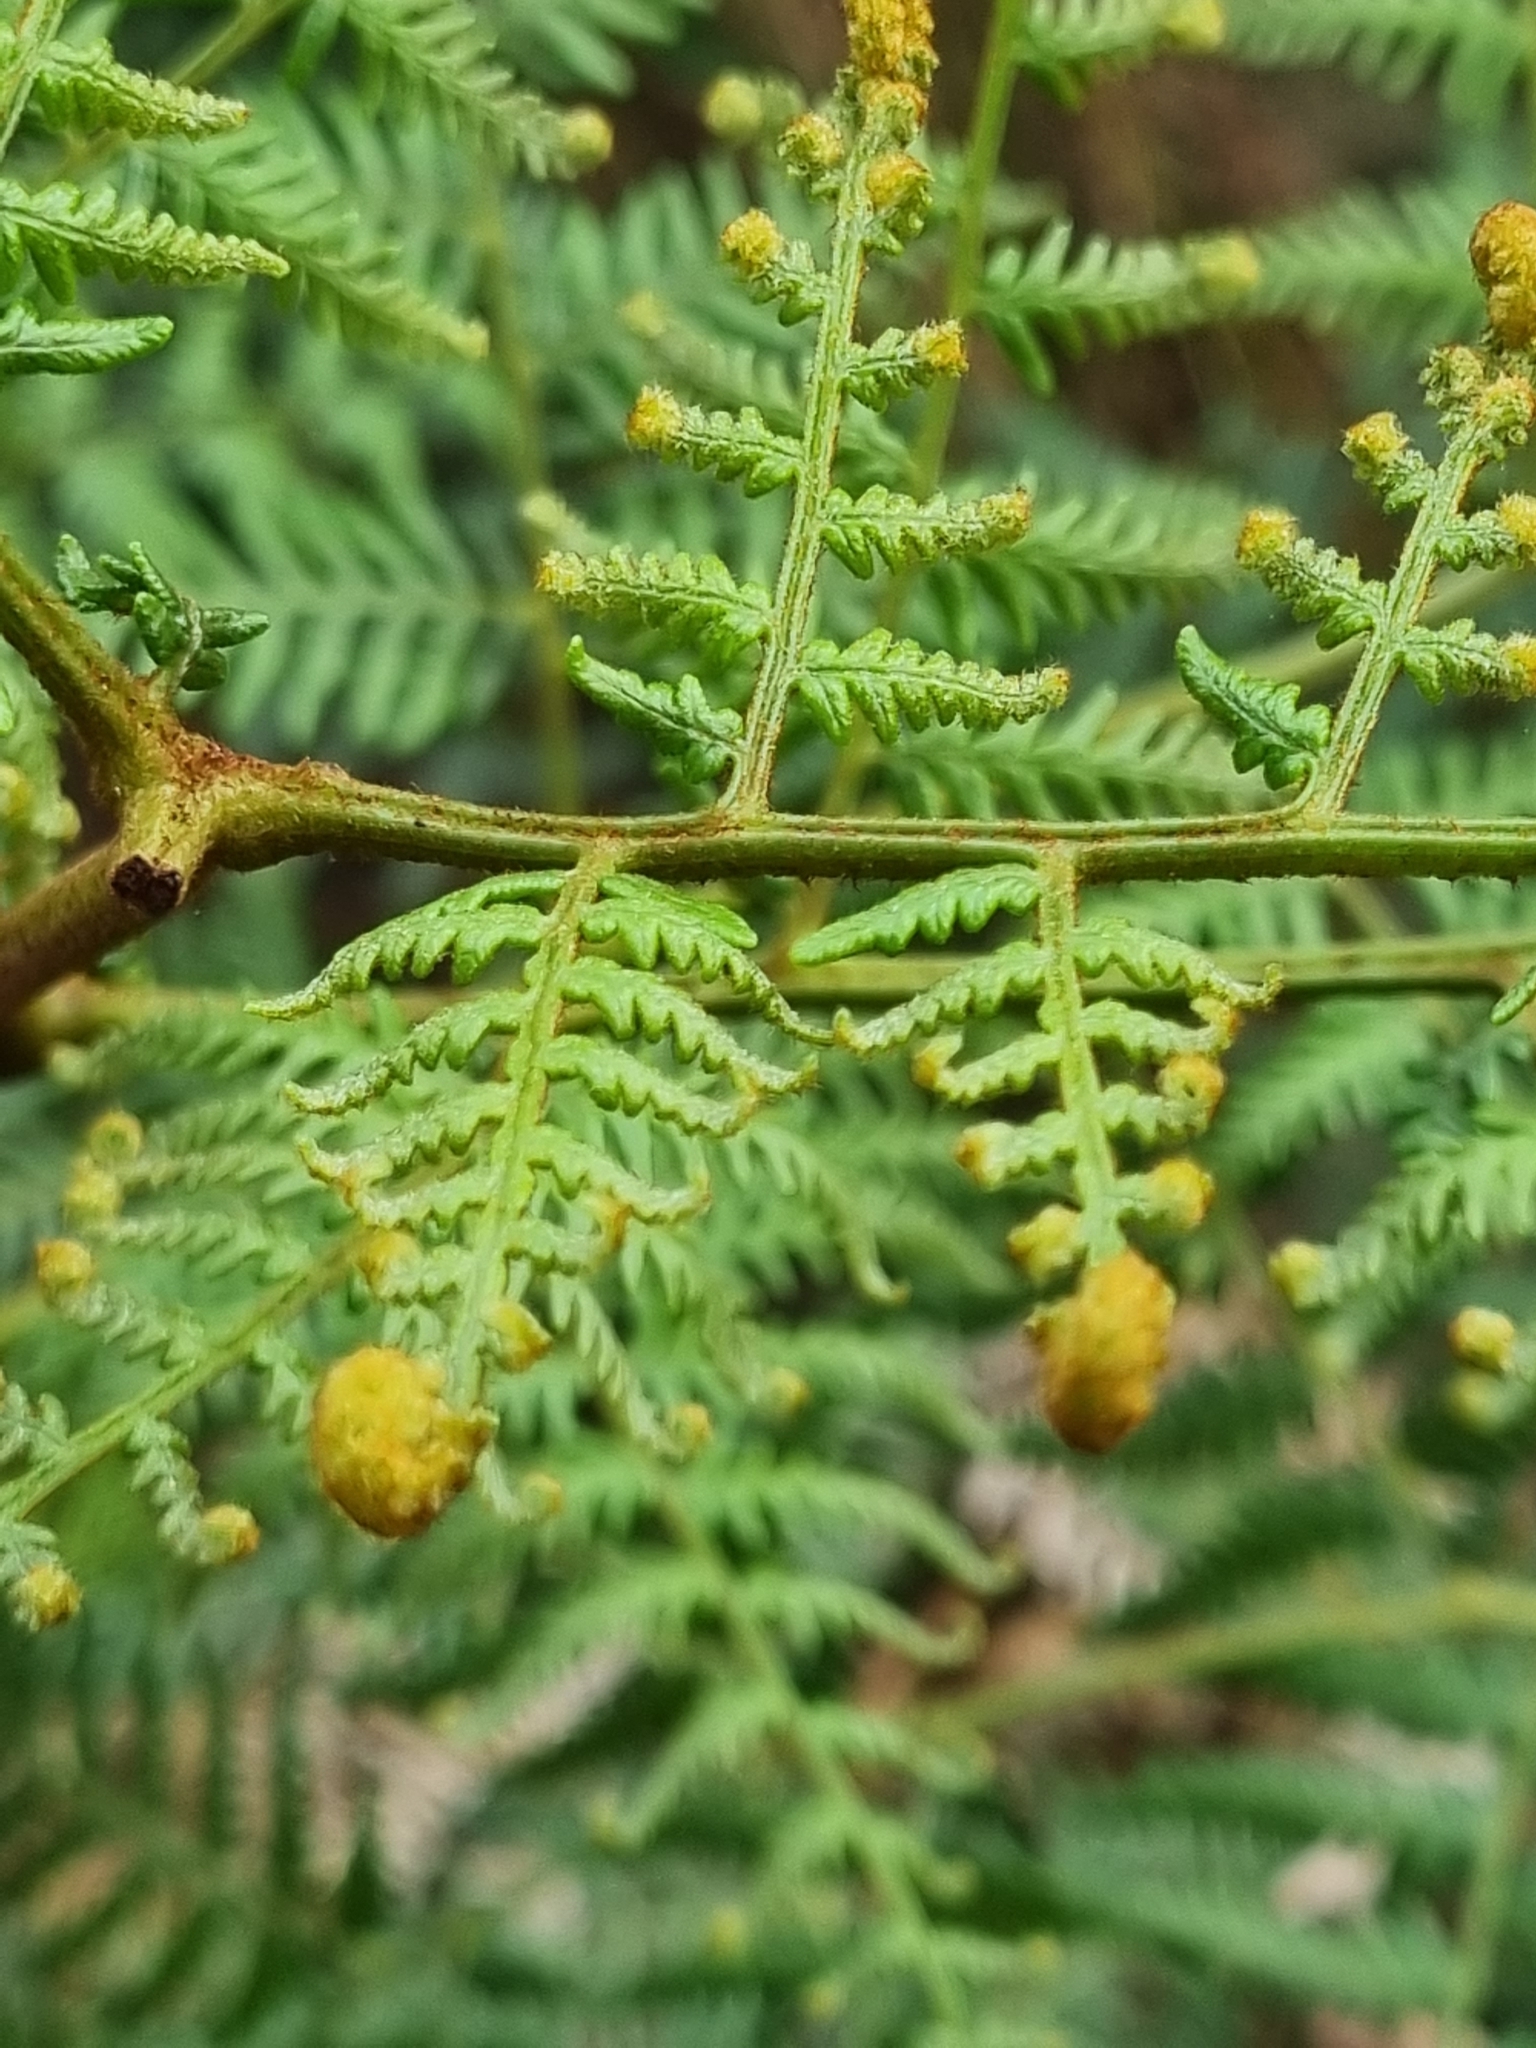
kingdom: Plantae
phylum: Tracheophyta
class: Polypodiopsida
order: Polypodiales
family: Dennstaedtiaceae
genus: Pteridium
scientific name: Pteridium esculentum
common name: Bracken fern
